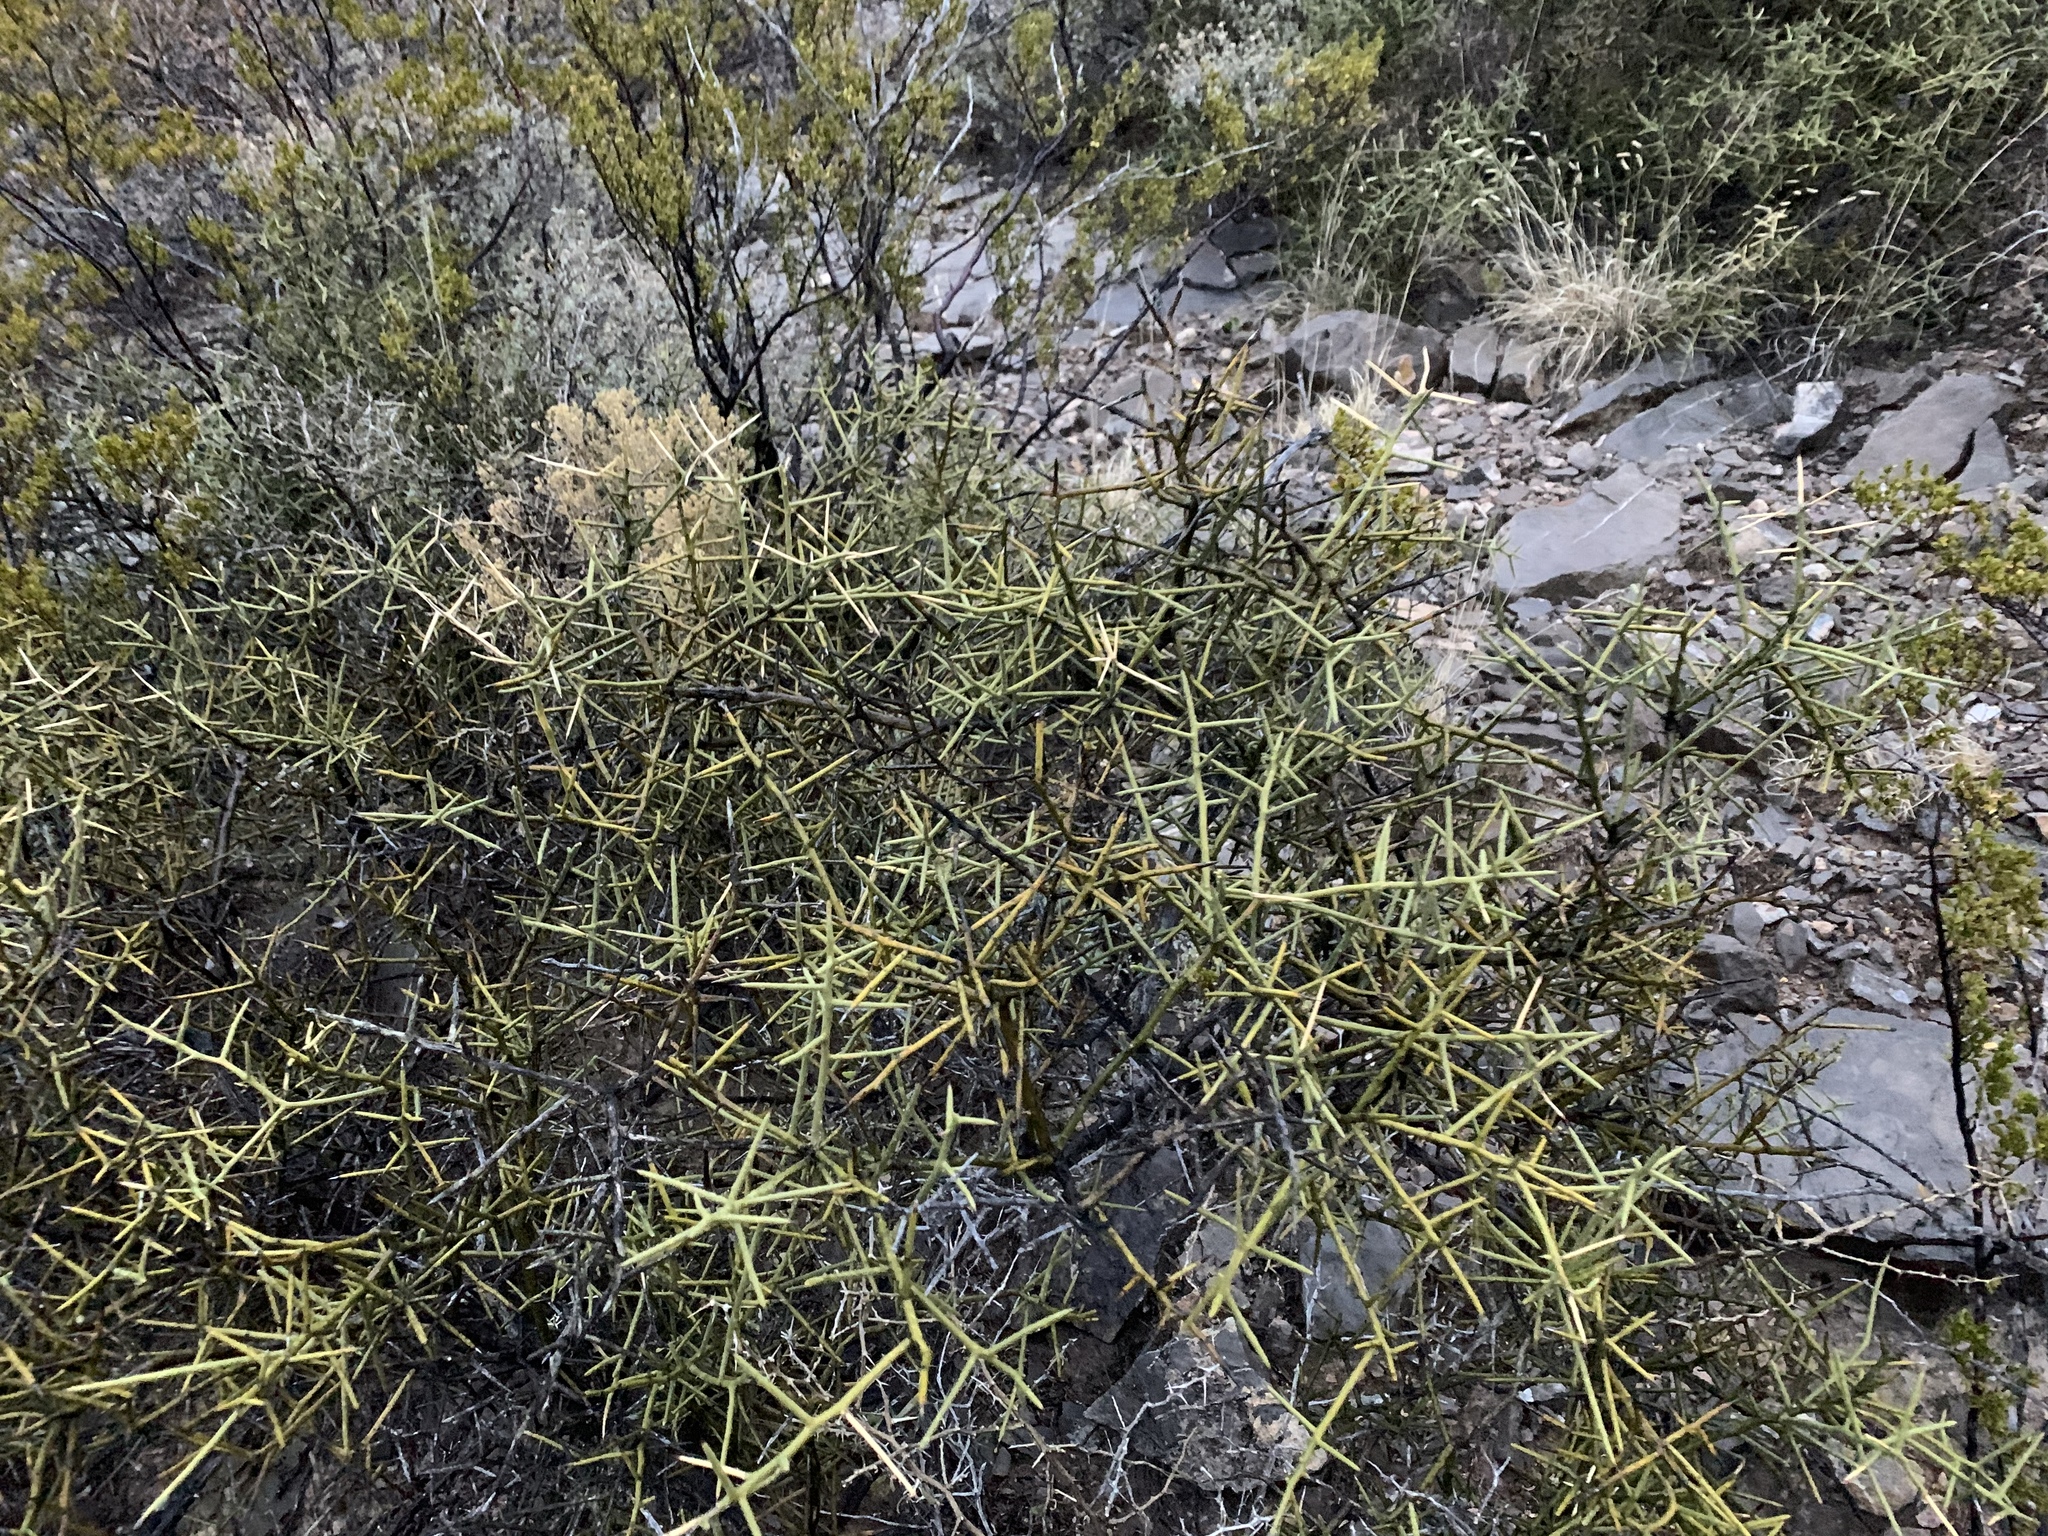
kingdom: Plantae
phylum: Tracheophyta
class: Magnoliopsida
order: Brassicales
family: Koeberliniaceae
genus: Koeberlinia
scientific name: Koeberlinia spinosa
